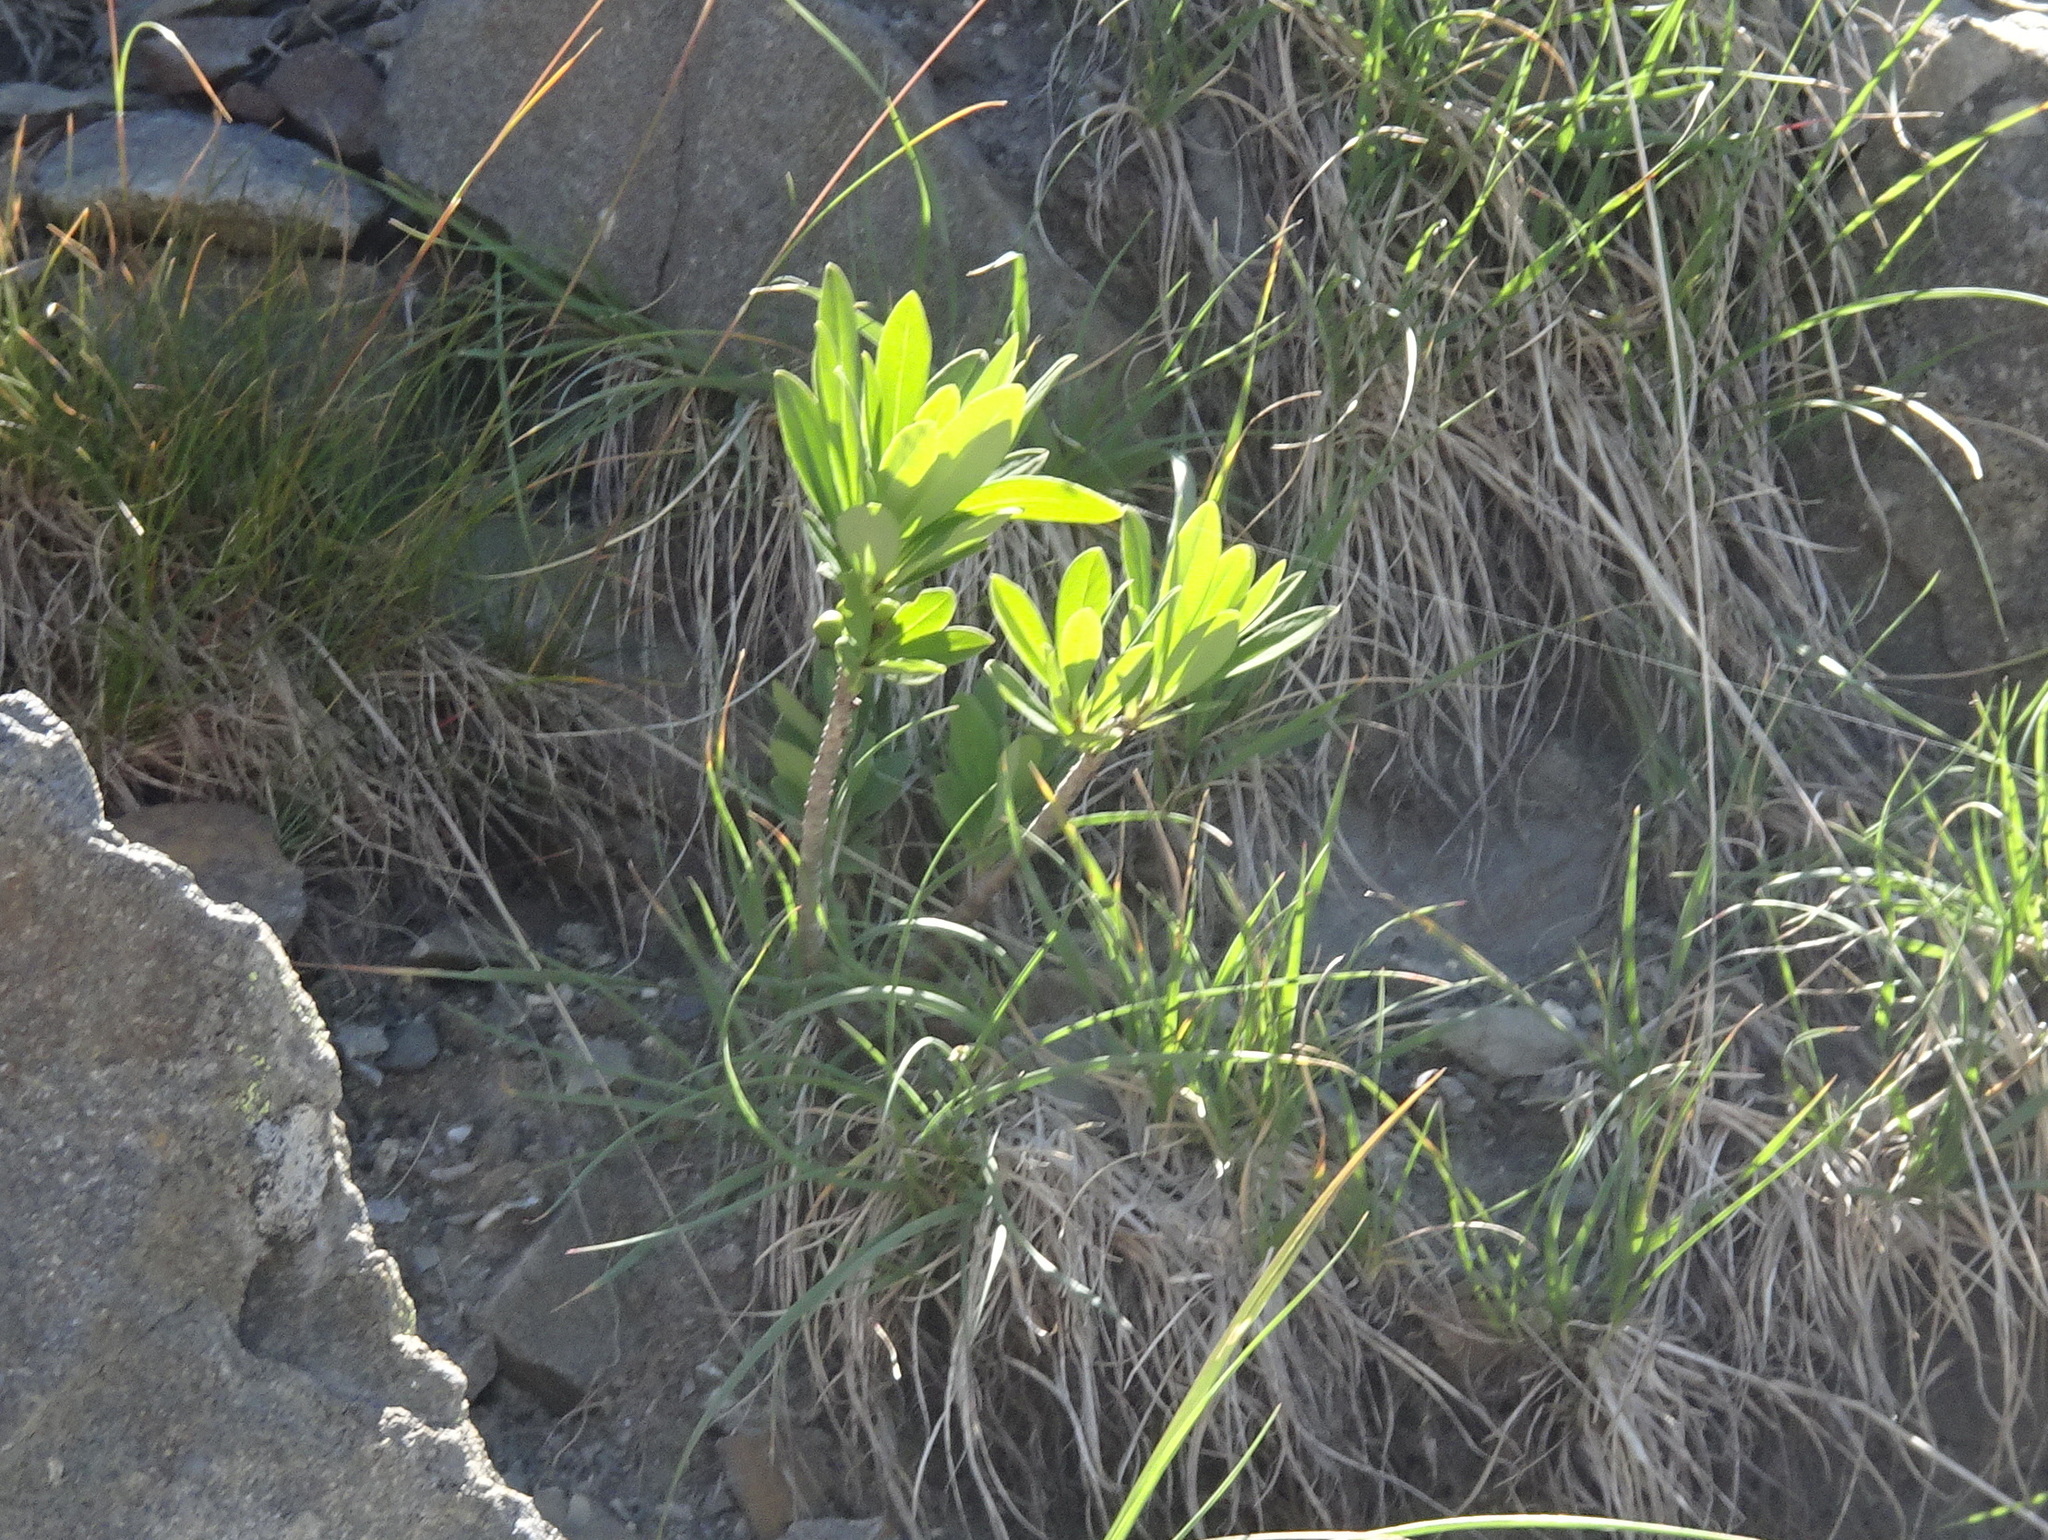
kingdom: Plantae
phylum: Tracheophyta
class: Magnoliopsida
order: Malvales
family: Thymelaeaceae
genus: Daphne
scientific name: Daphne mezereum
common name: Mezereon
